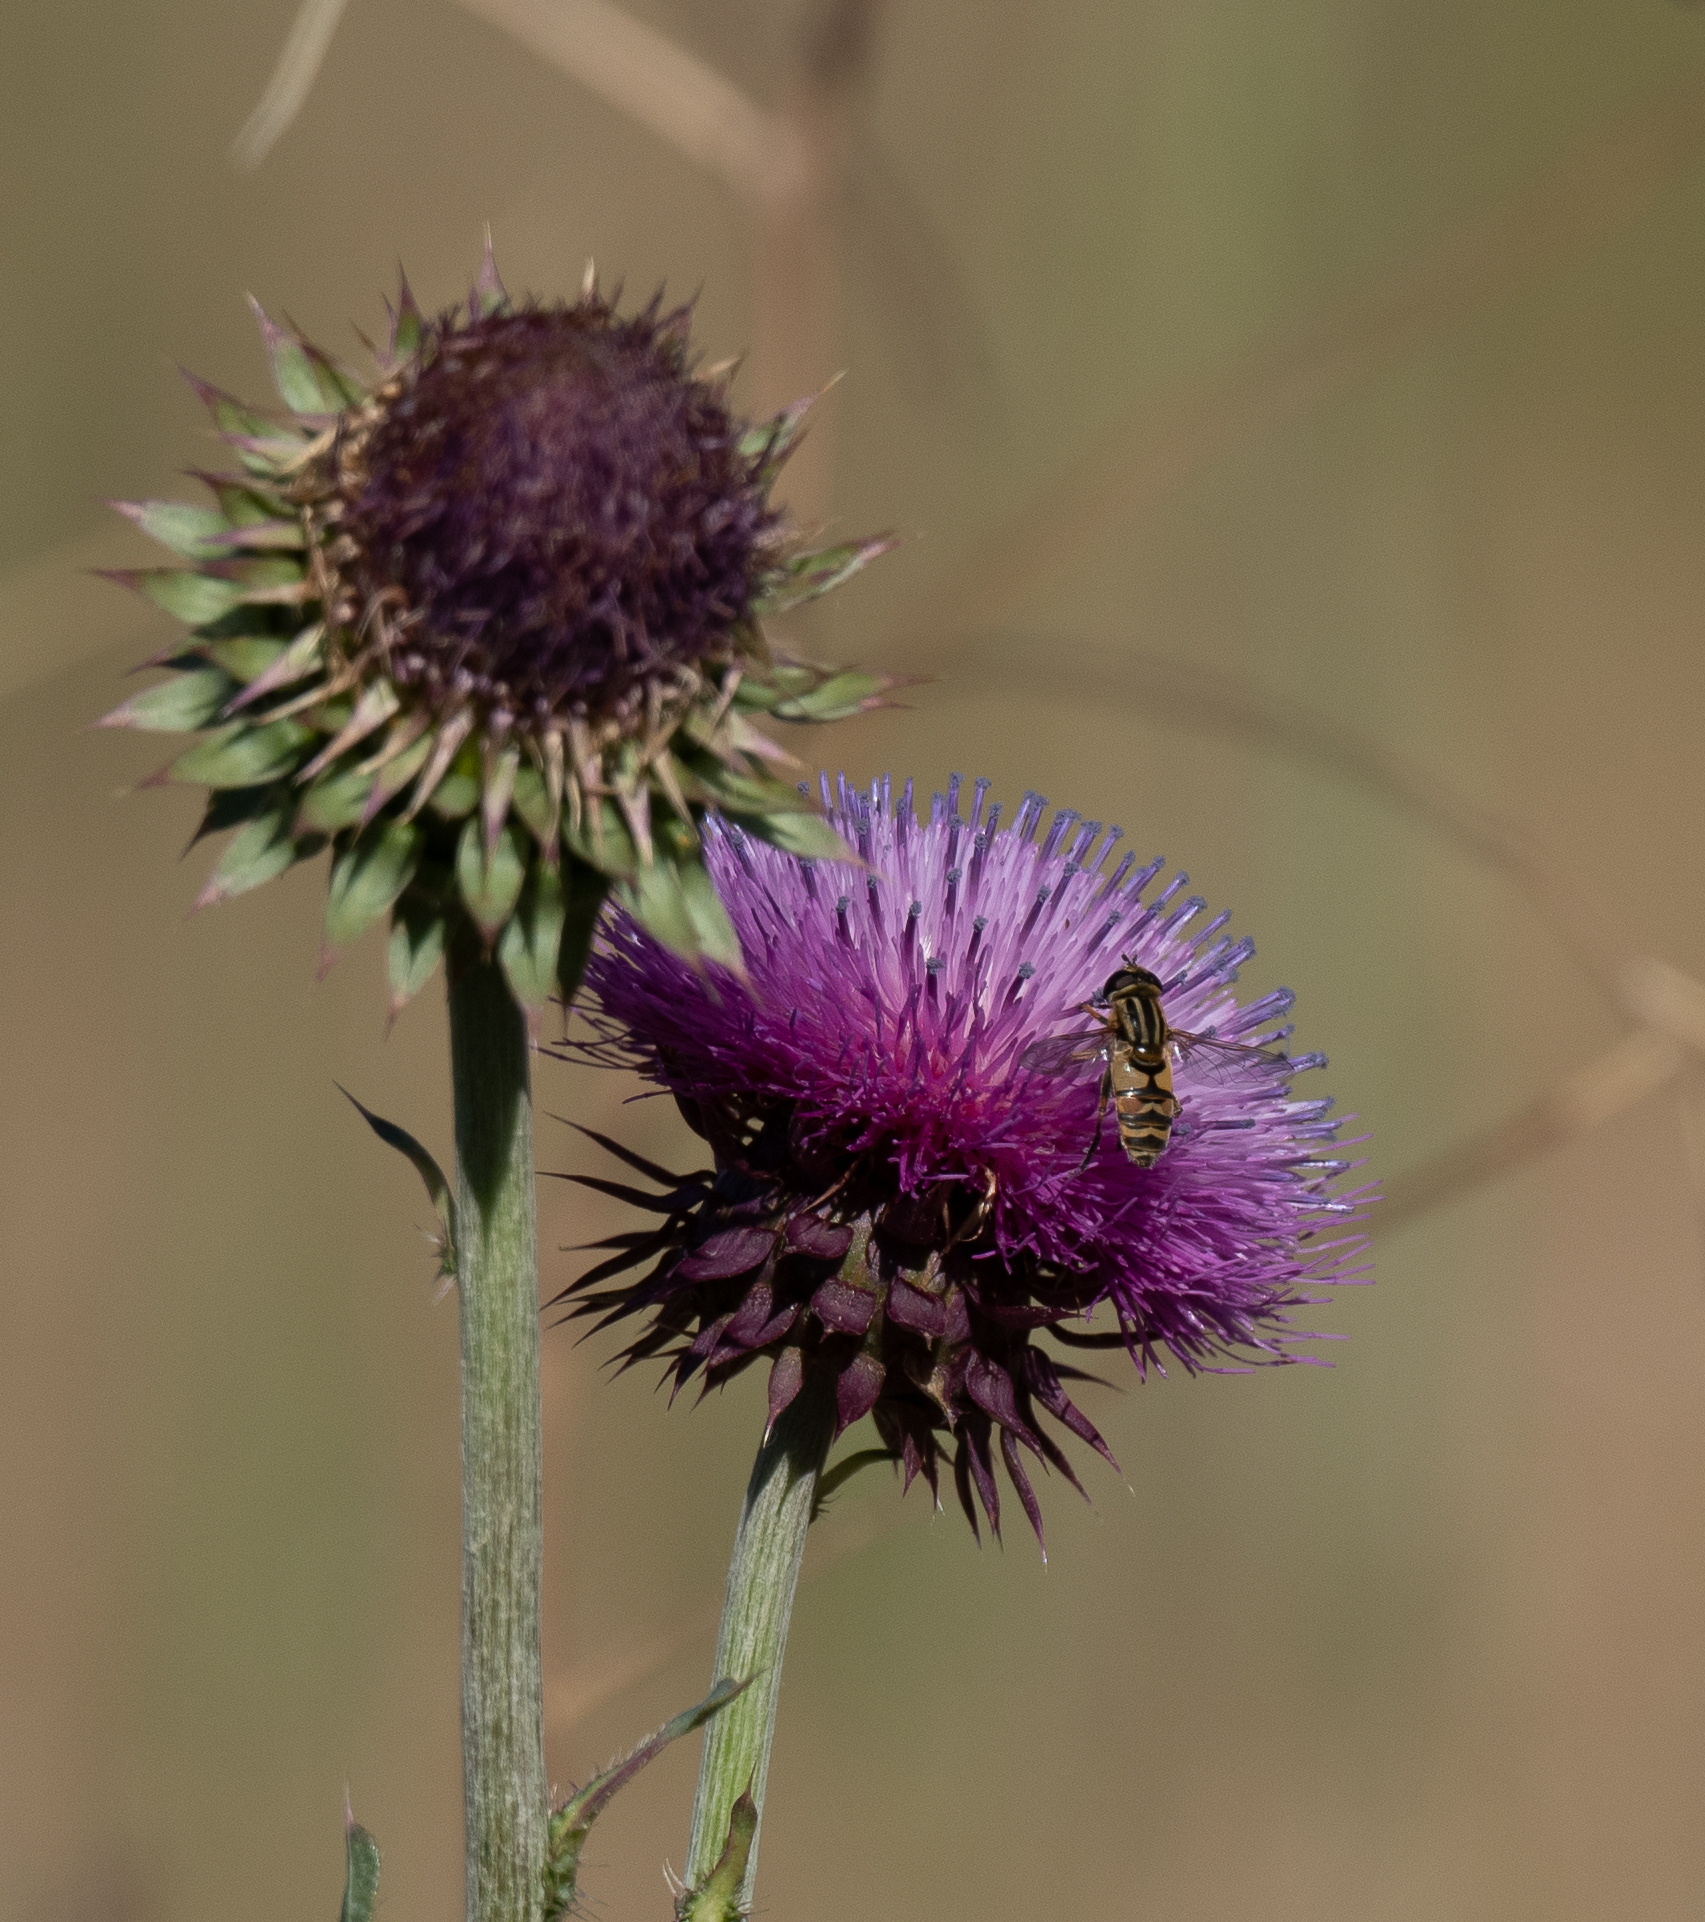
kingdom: Animalia
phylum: Arthropoda
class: Insecta
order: Diptera
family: Syrphidae
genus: Helophilus
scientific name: Helophilus latifrons
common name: Broad-headed marsh fly
